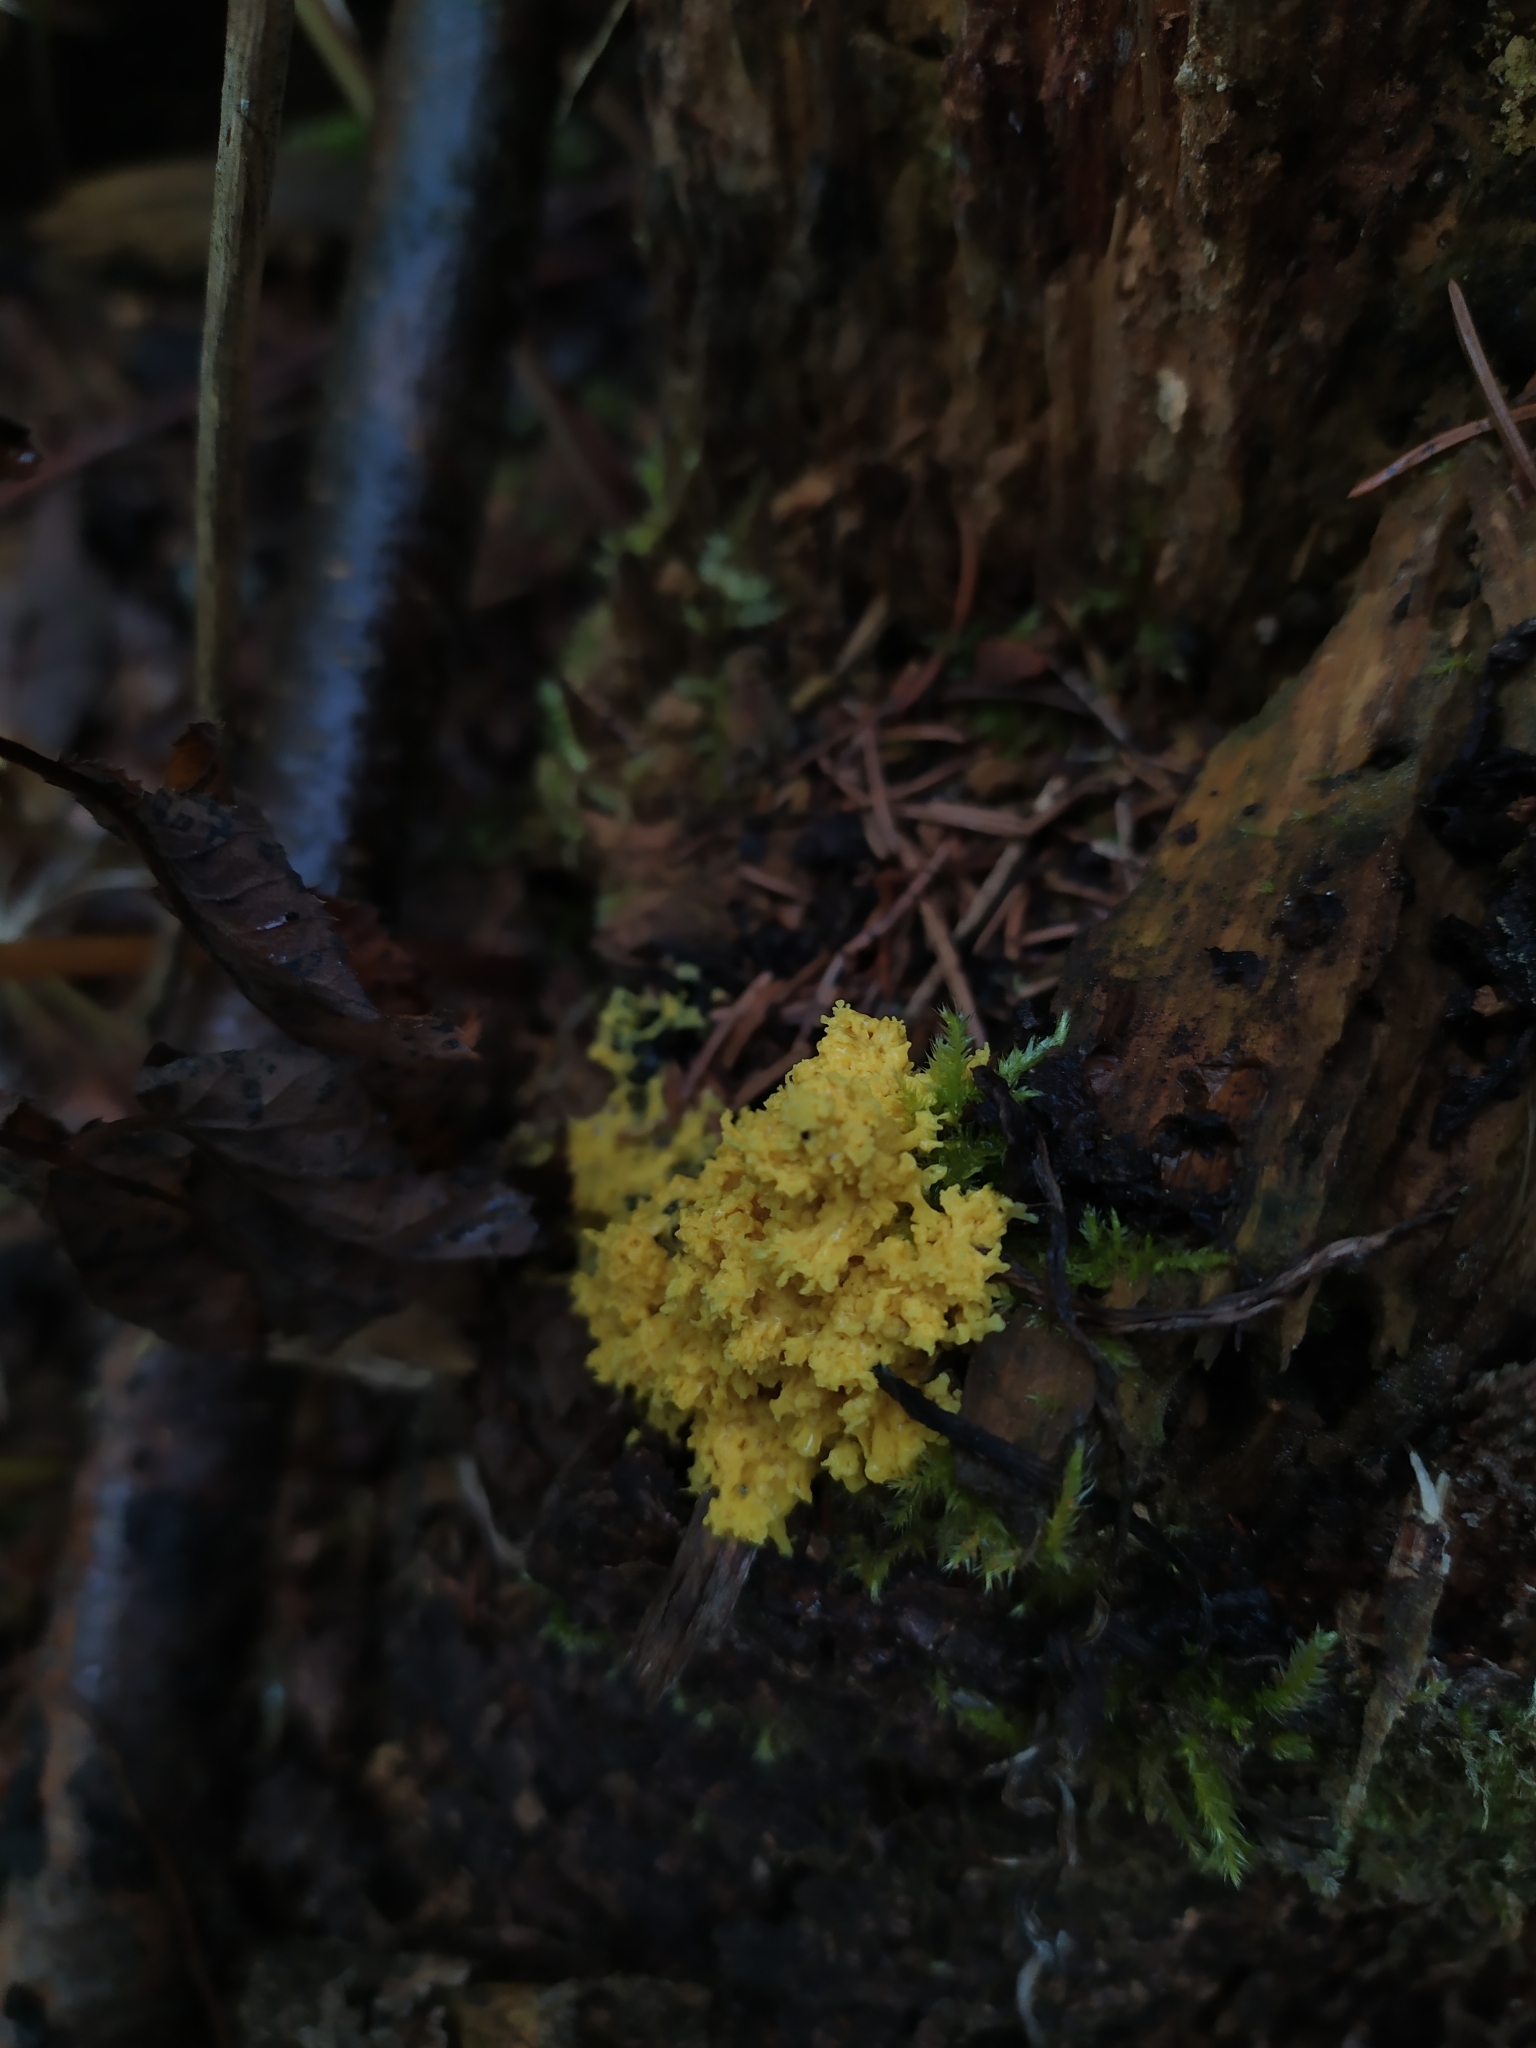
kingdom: Protozoa
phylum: Mycetozoa
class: Myxomycetes
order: Physarales
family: Physaraceae
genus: Fuligo
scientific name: Fuligo septica
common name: Dog vomit slime mold
